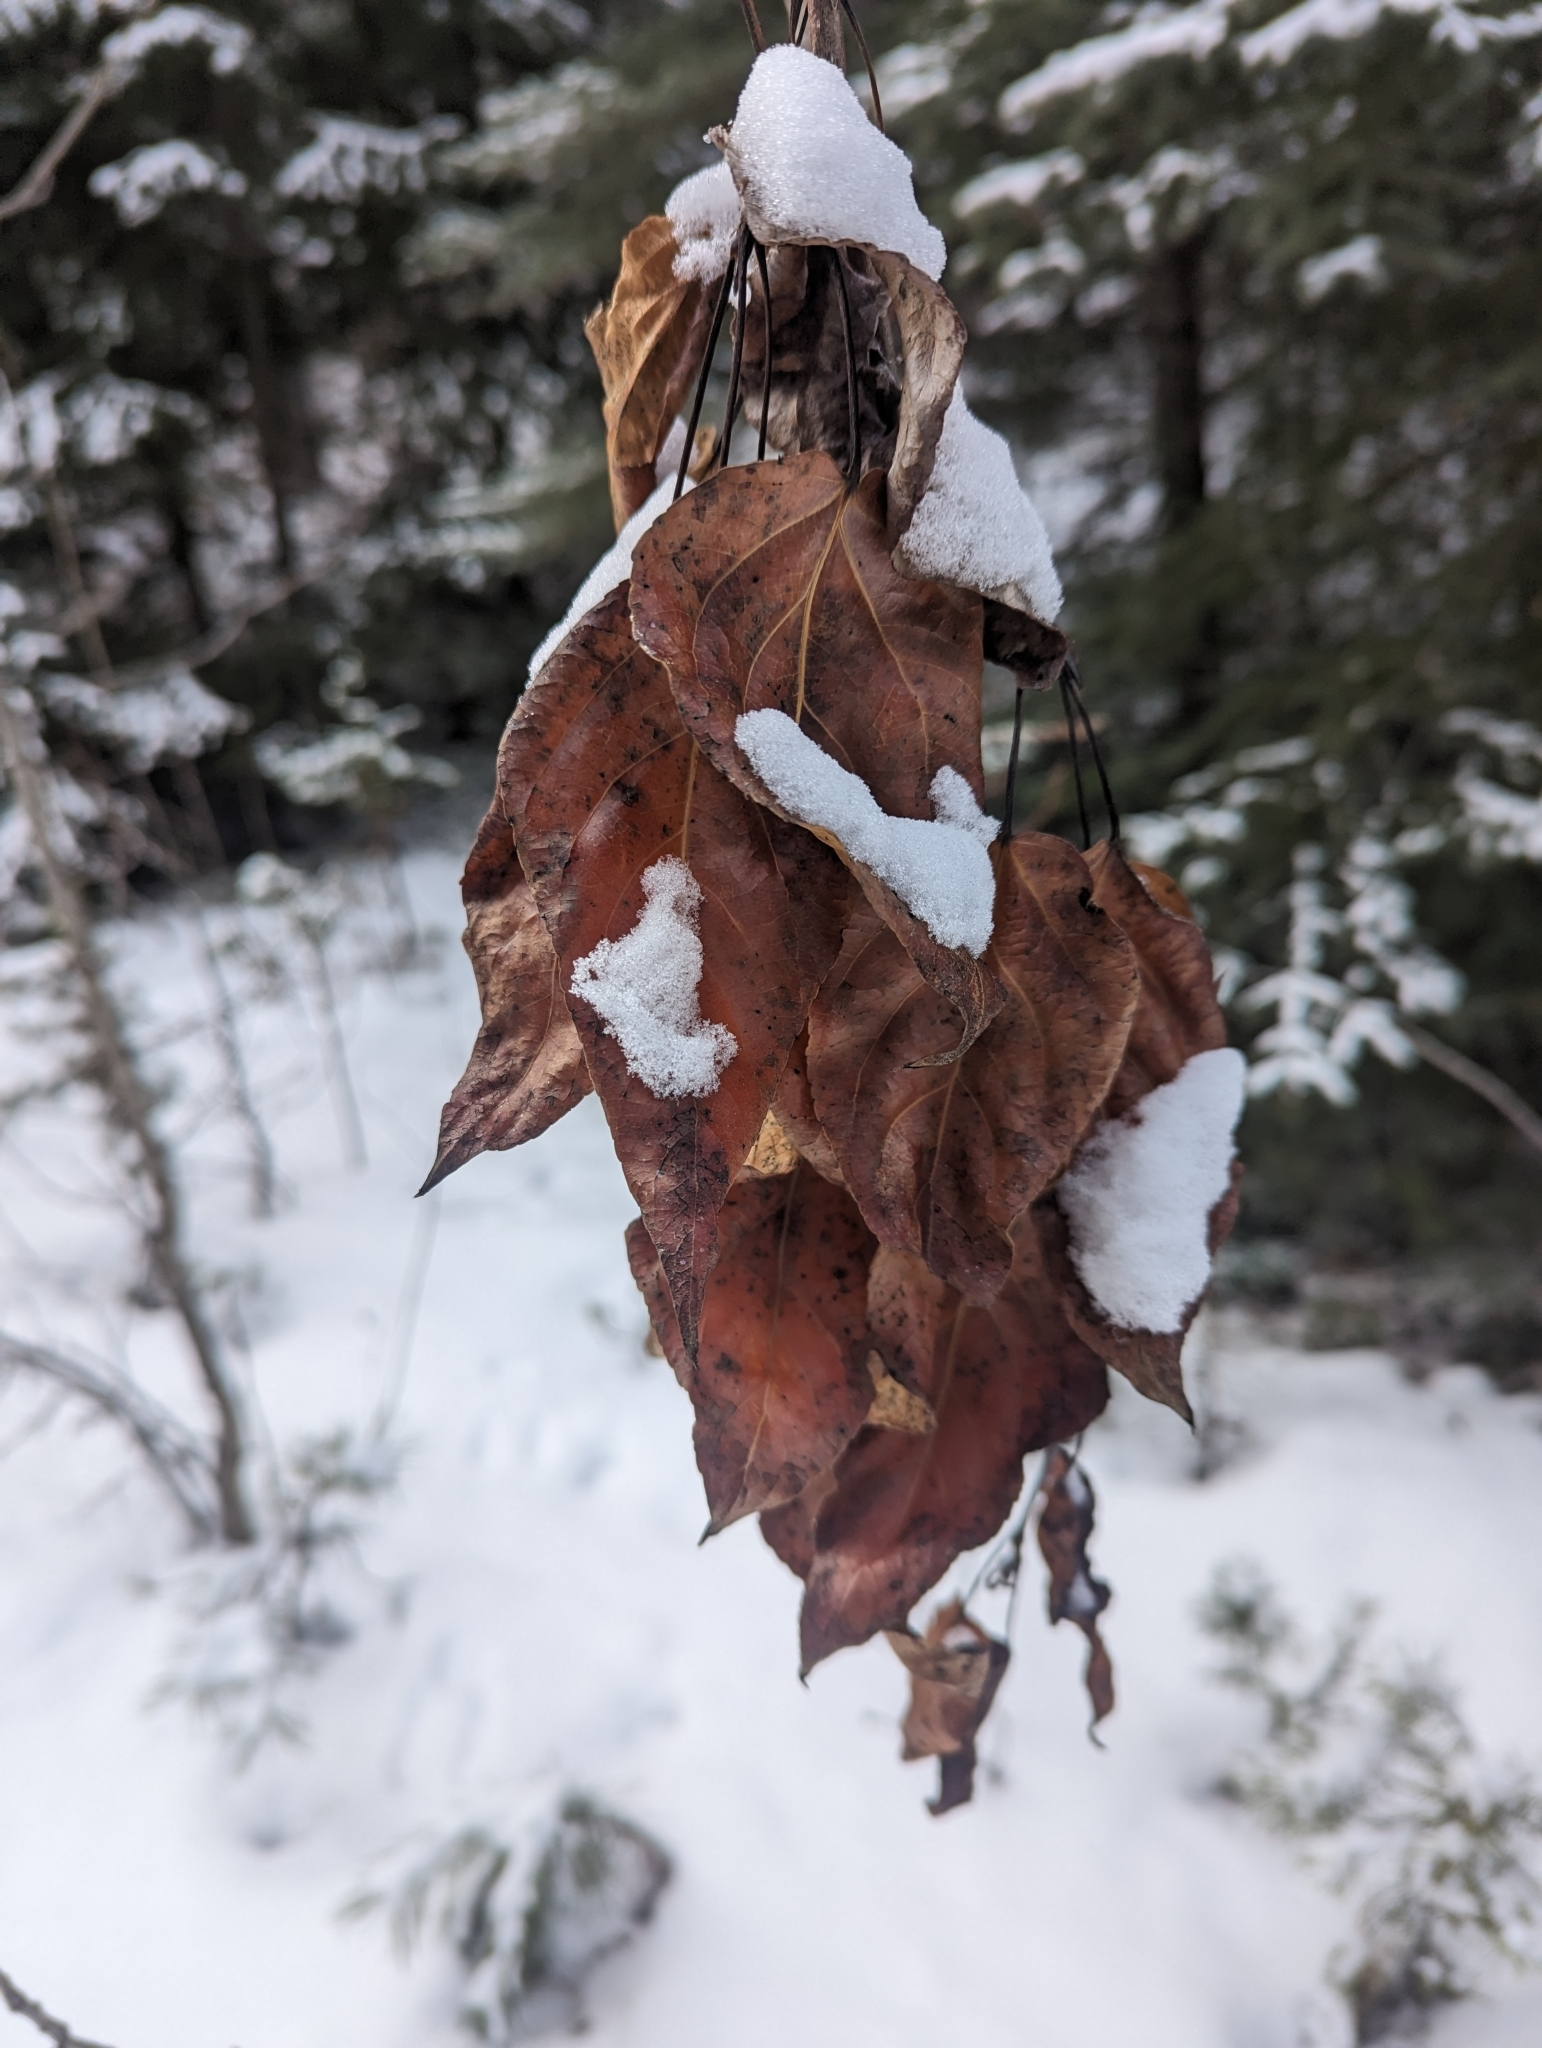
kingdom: Plantae
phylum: Tracheophyta
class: Magnoliopsida
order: Malpighiales
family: Salicaceae
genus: Populus
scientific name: Populus balsamifera
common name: Balsam poplar
